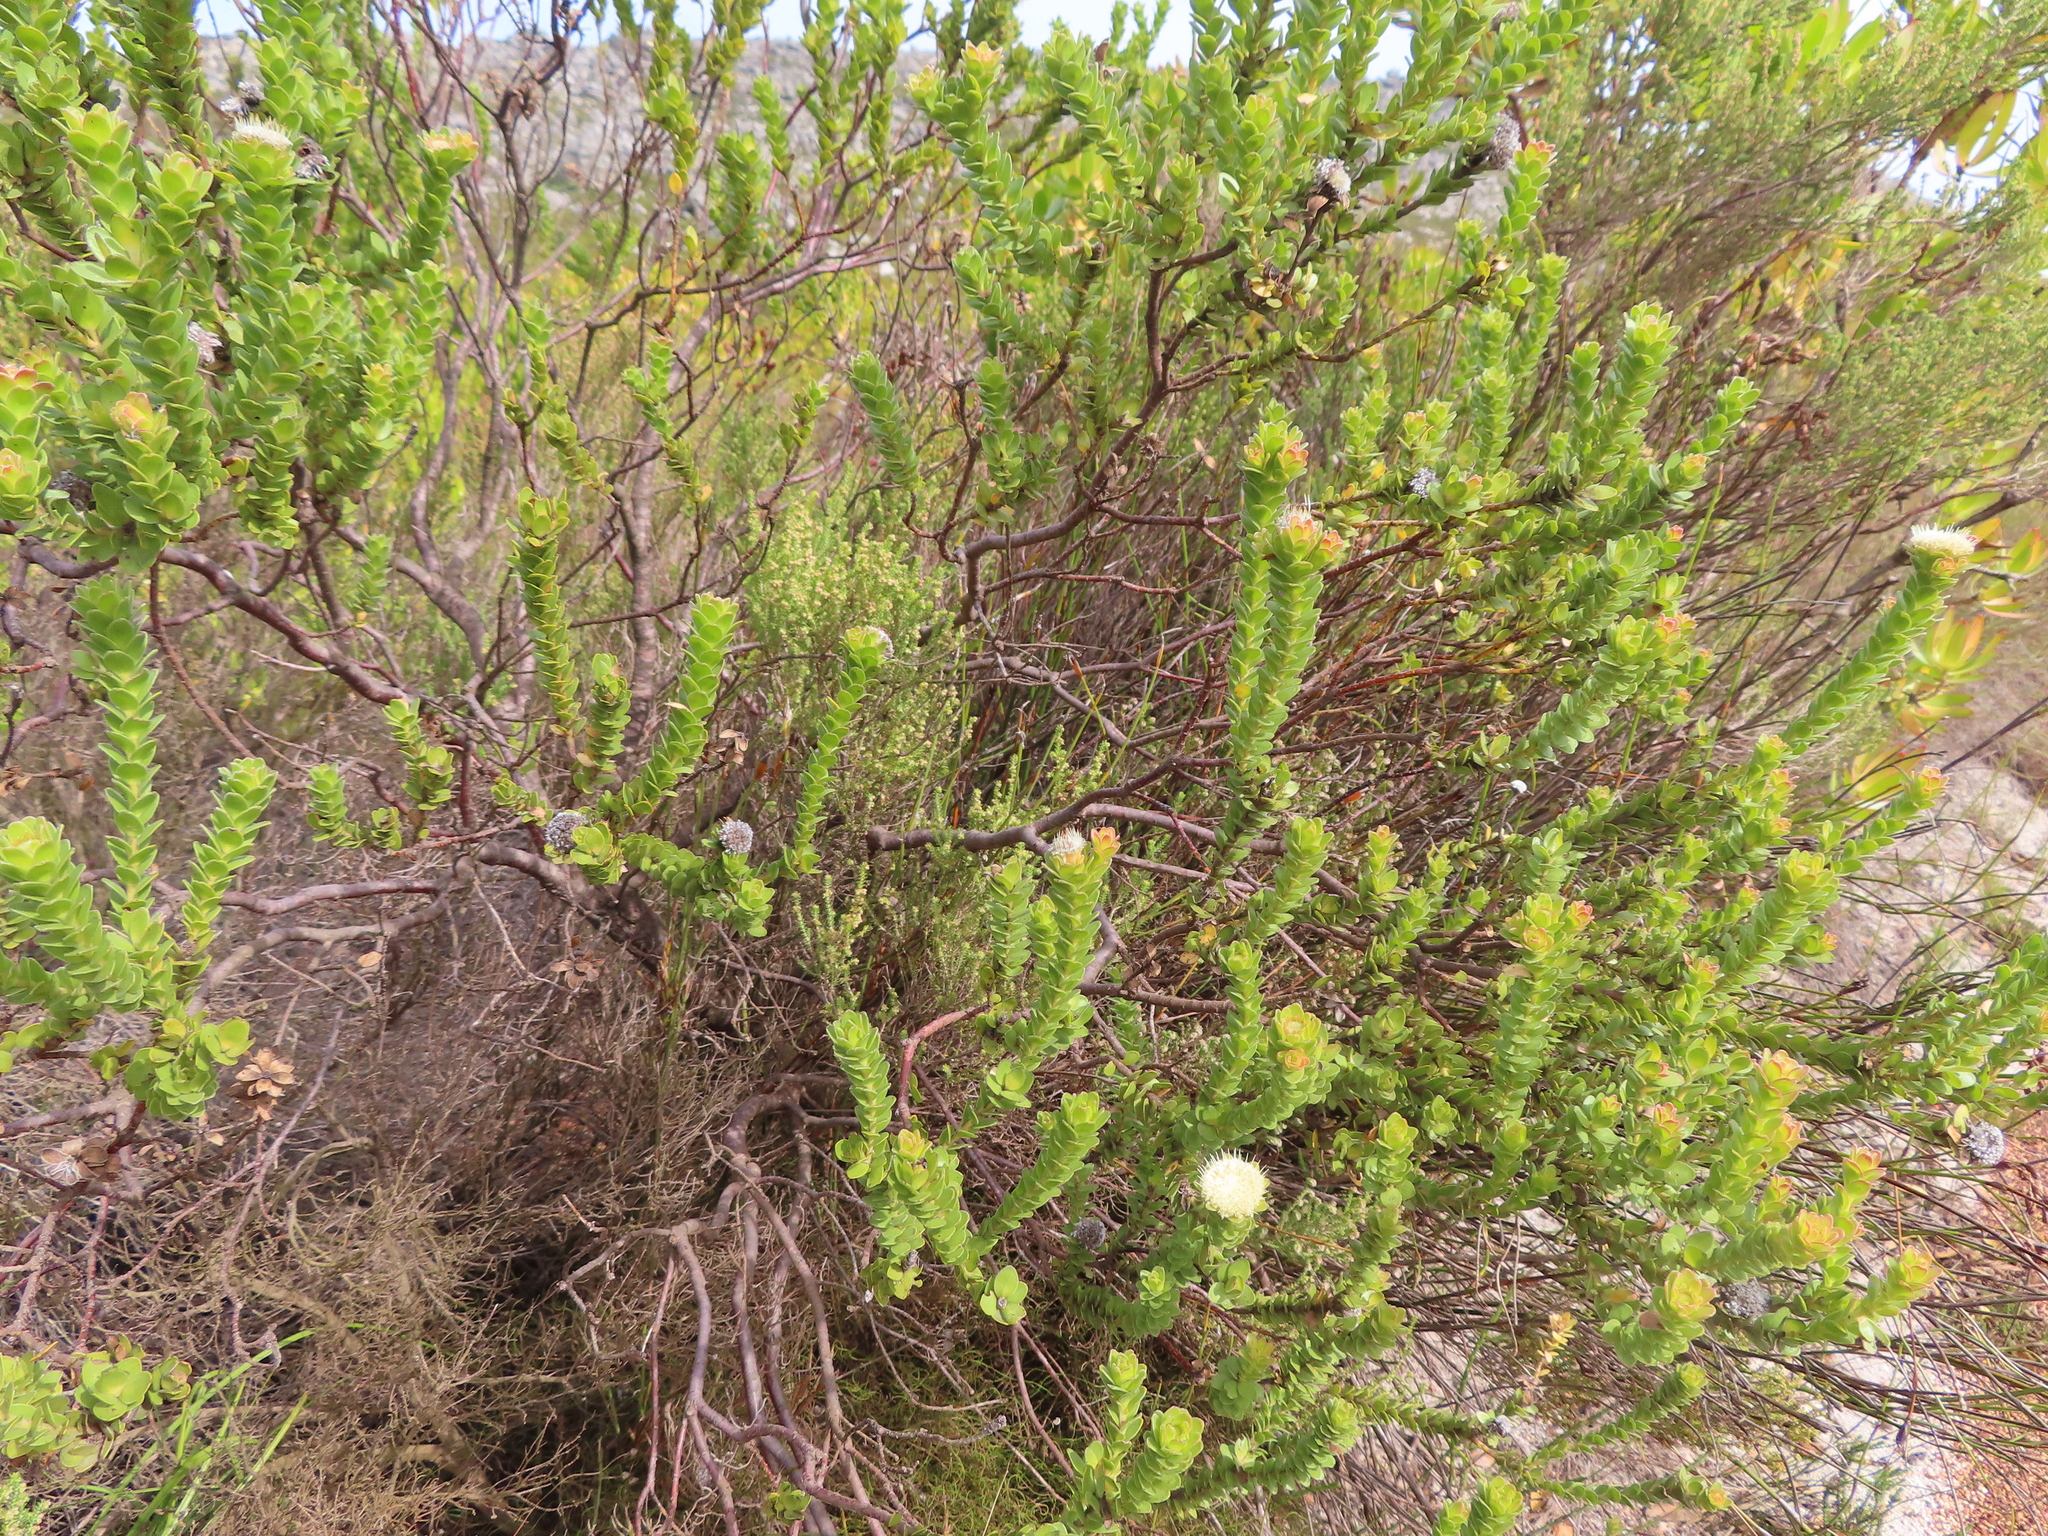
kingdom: Plantae
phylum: Tracheophyta
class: Magnoliopsida
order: Proteales
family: Proteaceae
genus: Diastella
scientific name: Diastella thymelaeoides
